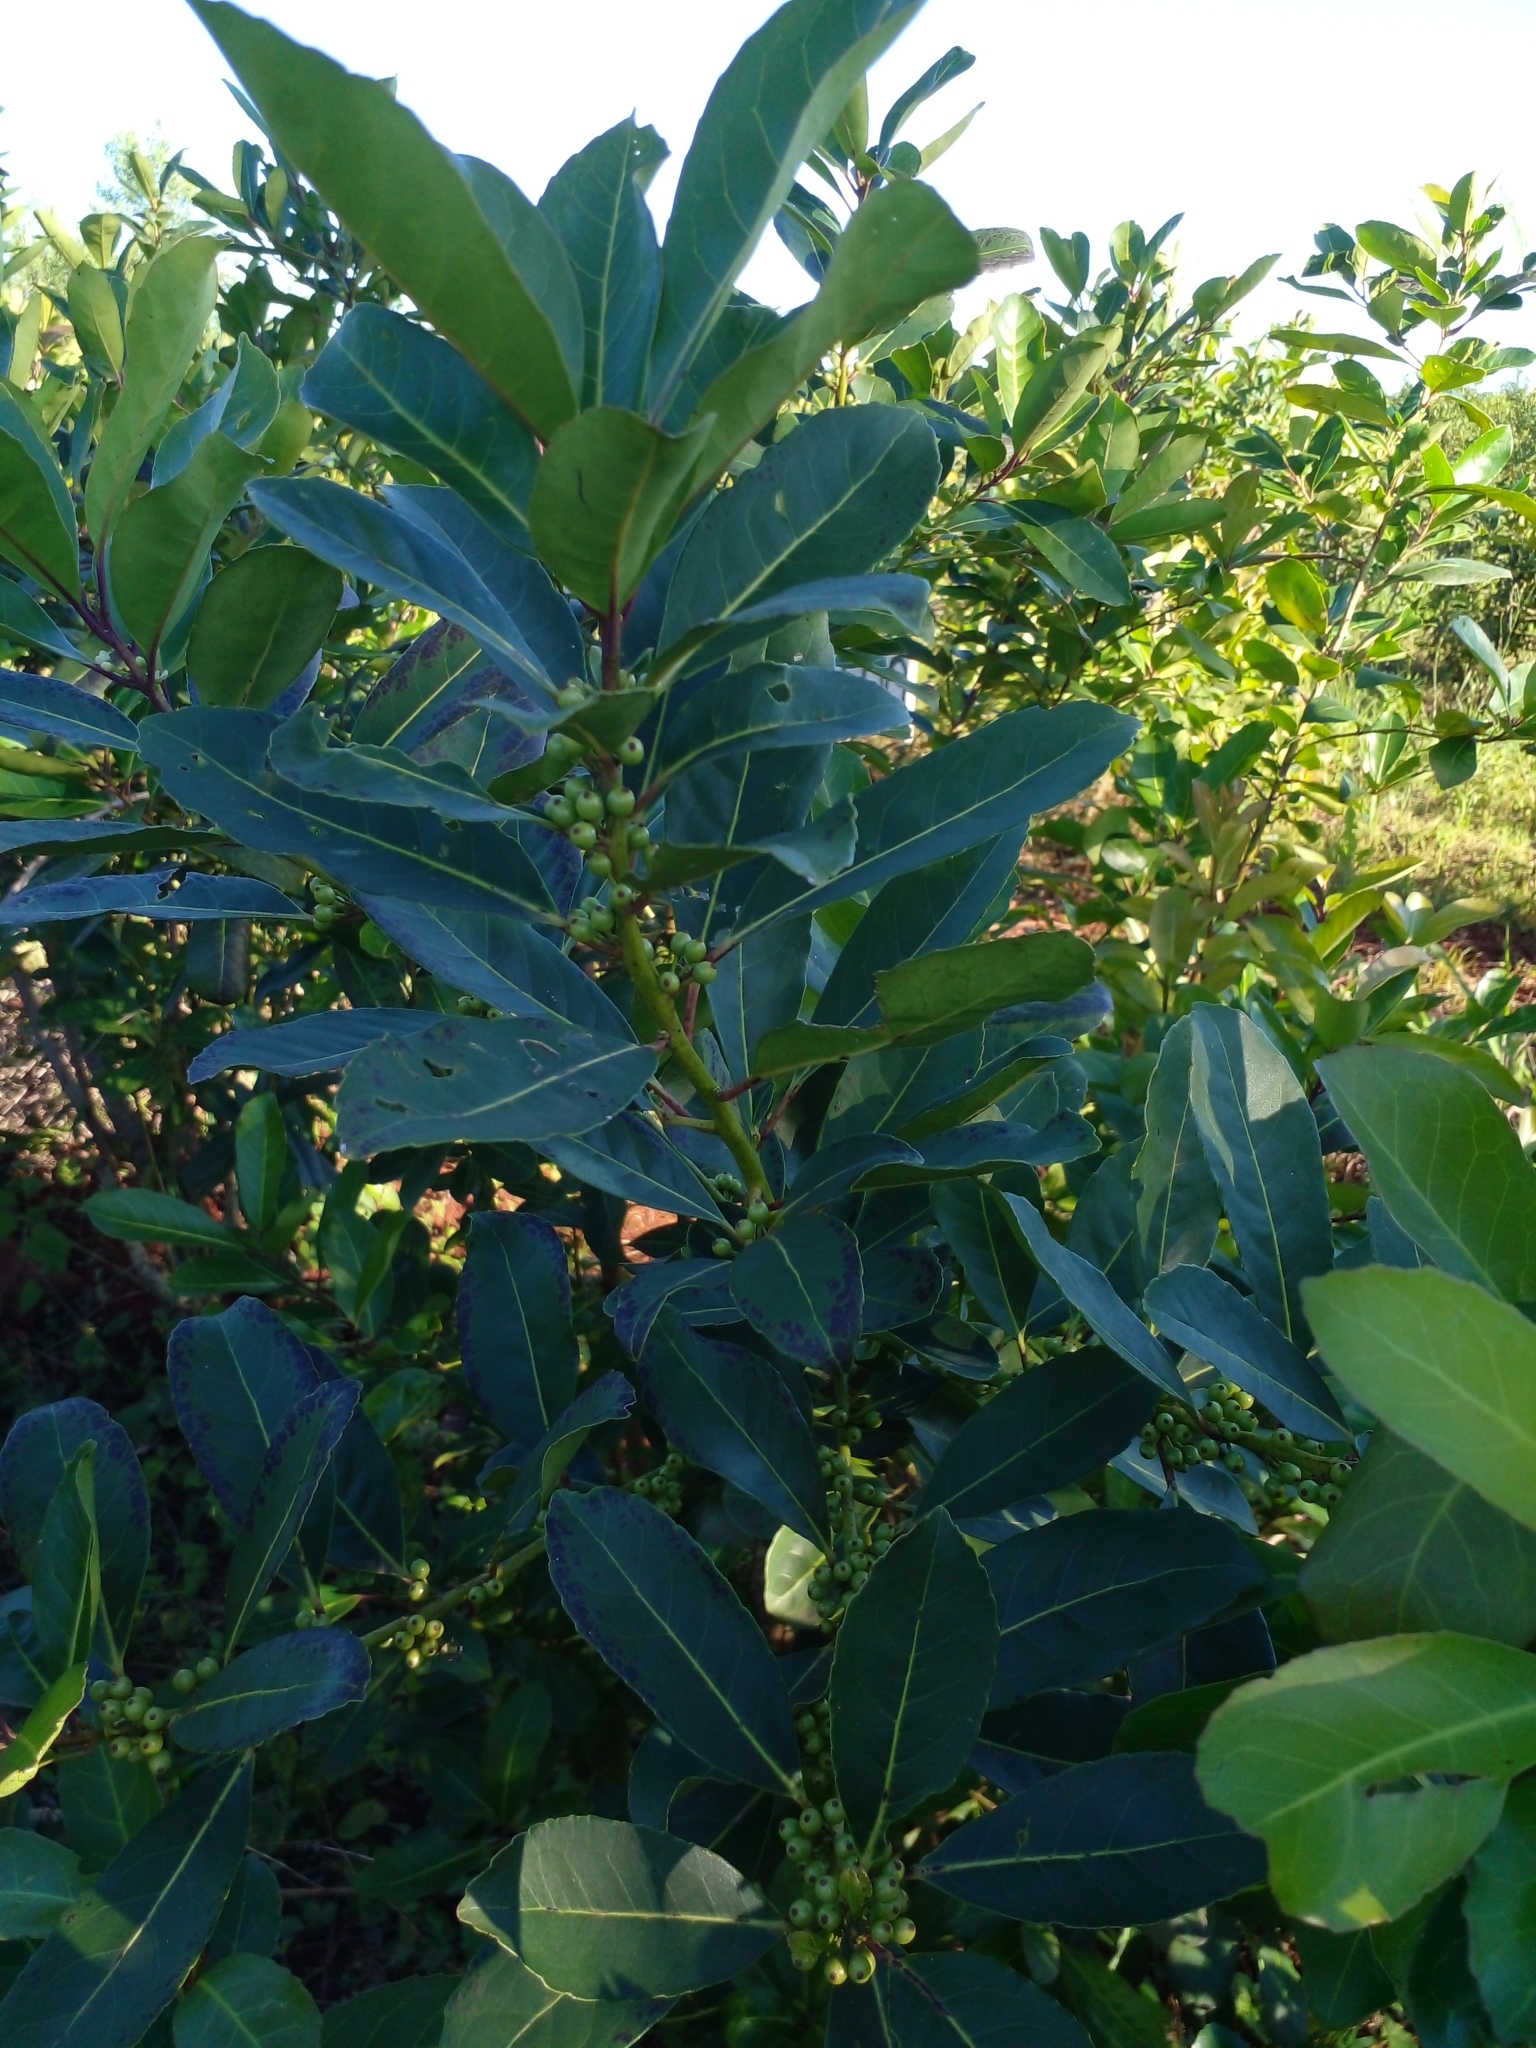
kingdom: Plantae
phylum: Tracheophyta
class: Magnoliopsida
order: Aquifoliales
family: Aquifoliaceae
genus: Ilex
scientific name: Ilex paraguariensis
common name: Paraguay tea
